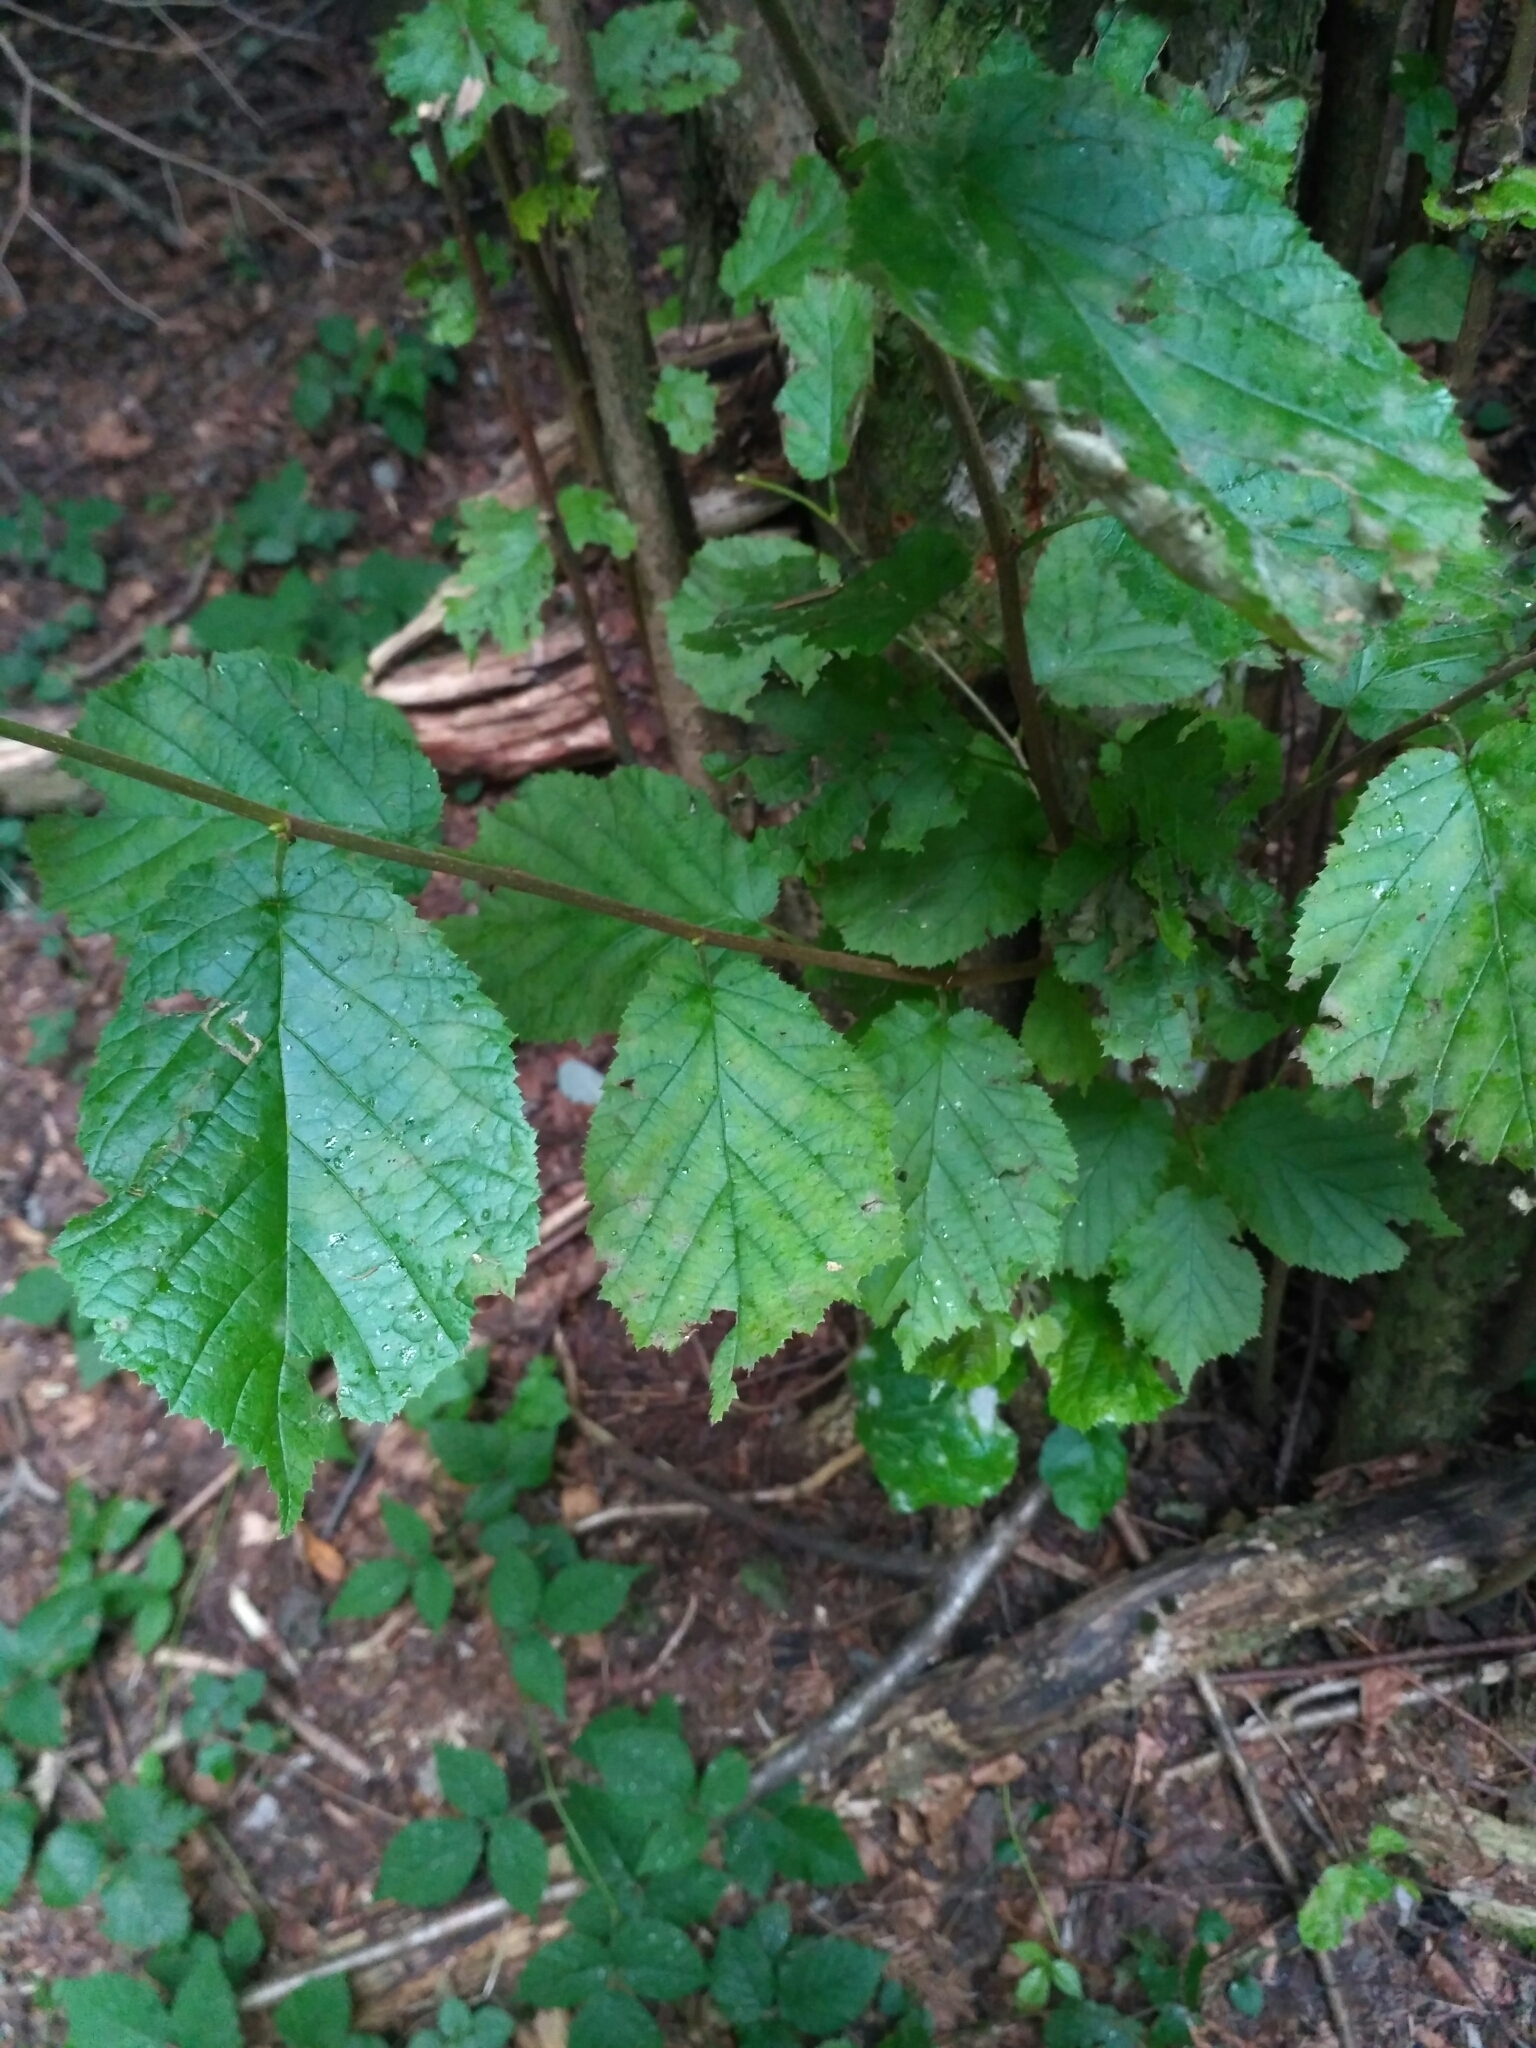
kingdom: Plantae
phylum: Tracheophyta
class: Magnoliopsida
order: Fagales
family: Betulaceae
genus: Corylus
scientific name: Corylus avellana
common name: European hazel
